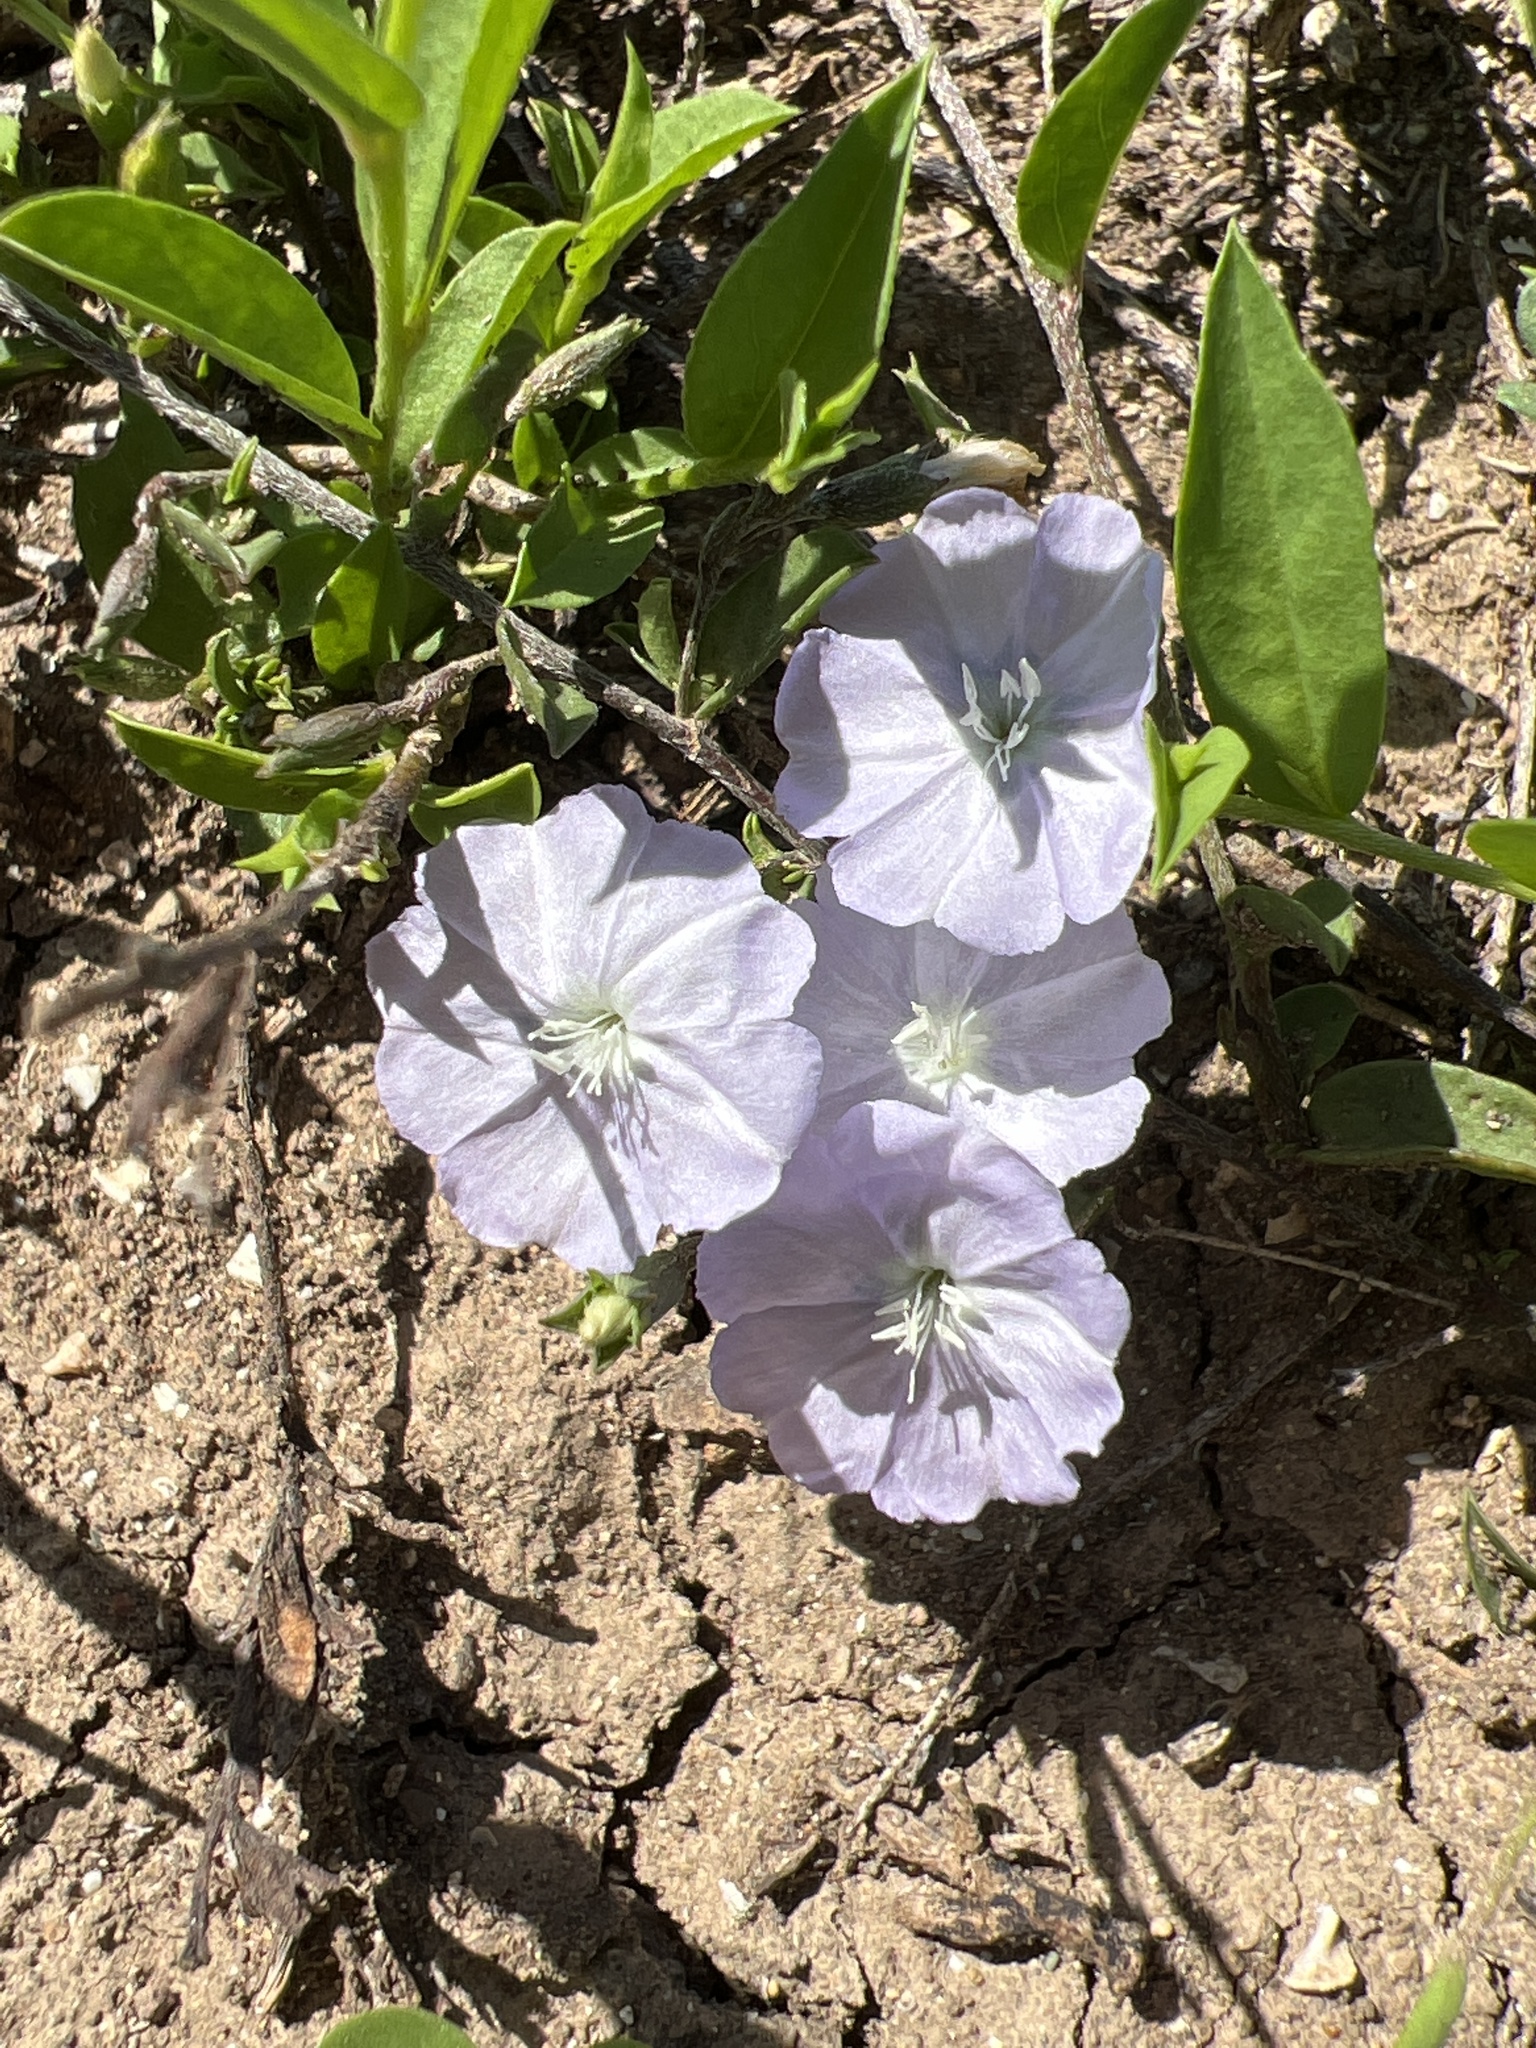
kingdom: Plantae
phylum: Tracheophyta
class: Magnoliopsida
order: Solanales
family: Convolvulaceae
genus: Evolvulus
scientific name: Evolvulus convolvuloides
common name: Bindweed dwarf morning-glory
